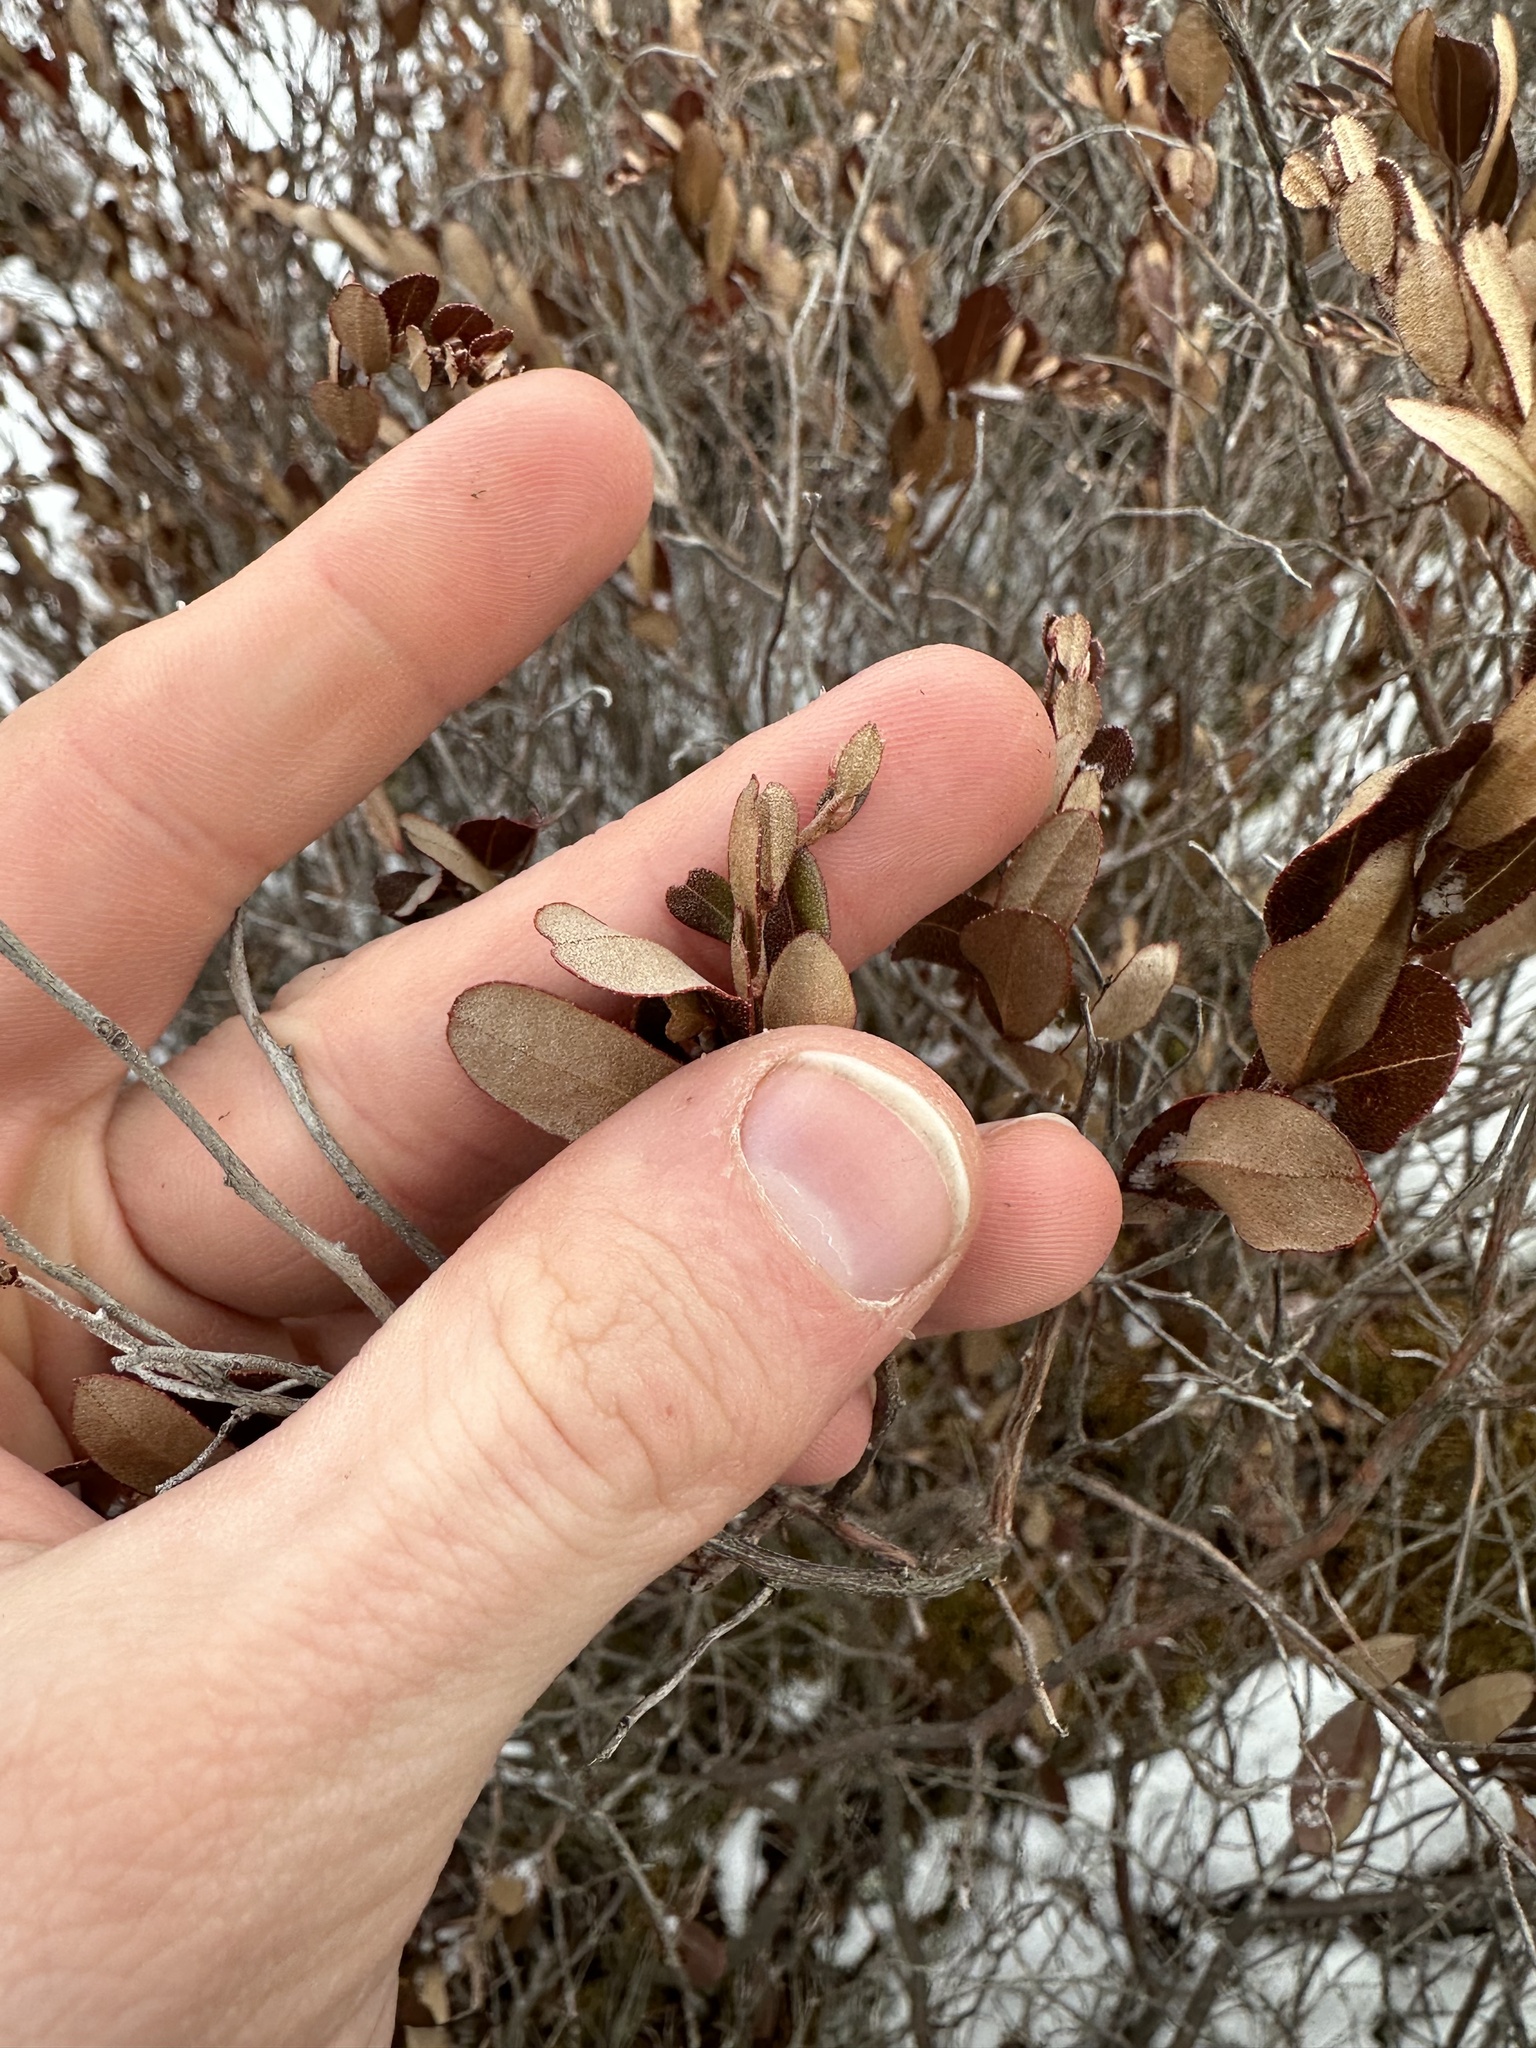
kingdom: Plantae
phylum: Tracheophyta
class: Magnoliopsida
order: Ericales
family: Ericaceae
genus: Chamaedaphne
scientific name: Chamaedaphne calyculata
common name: Leatherleaf
